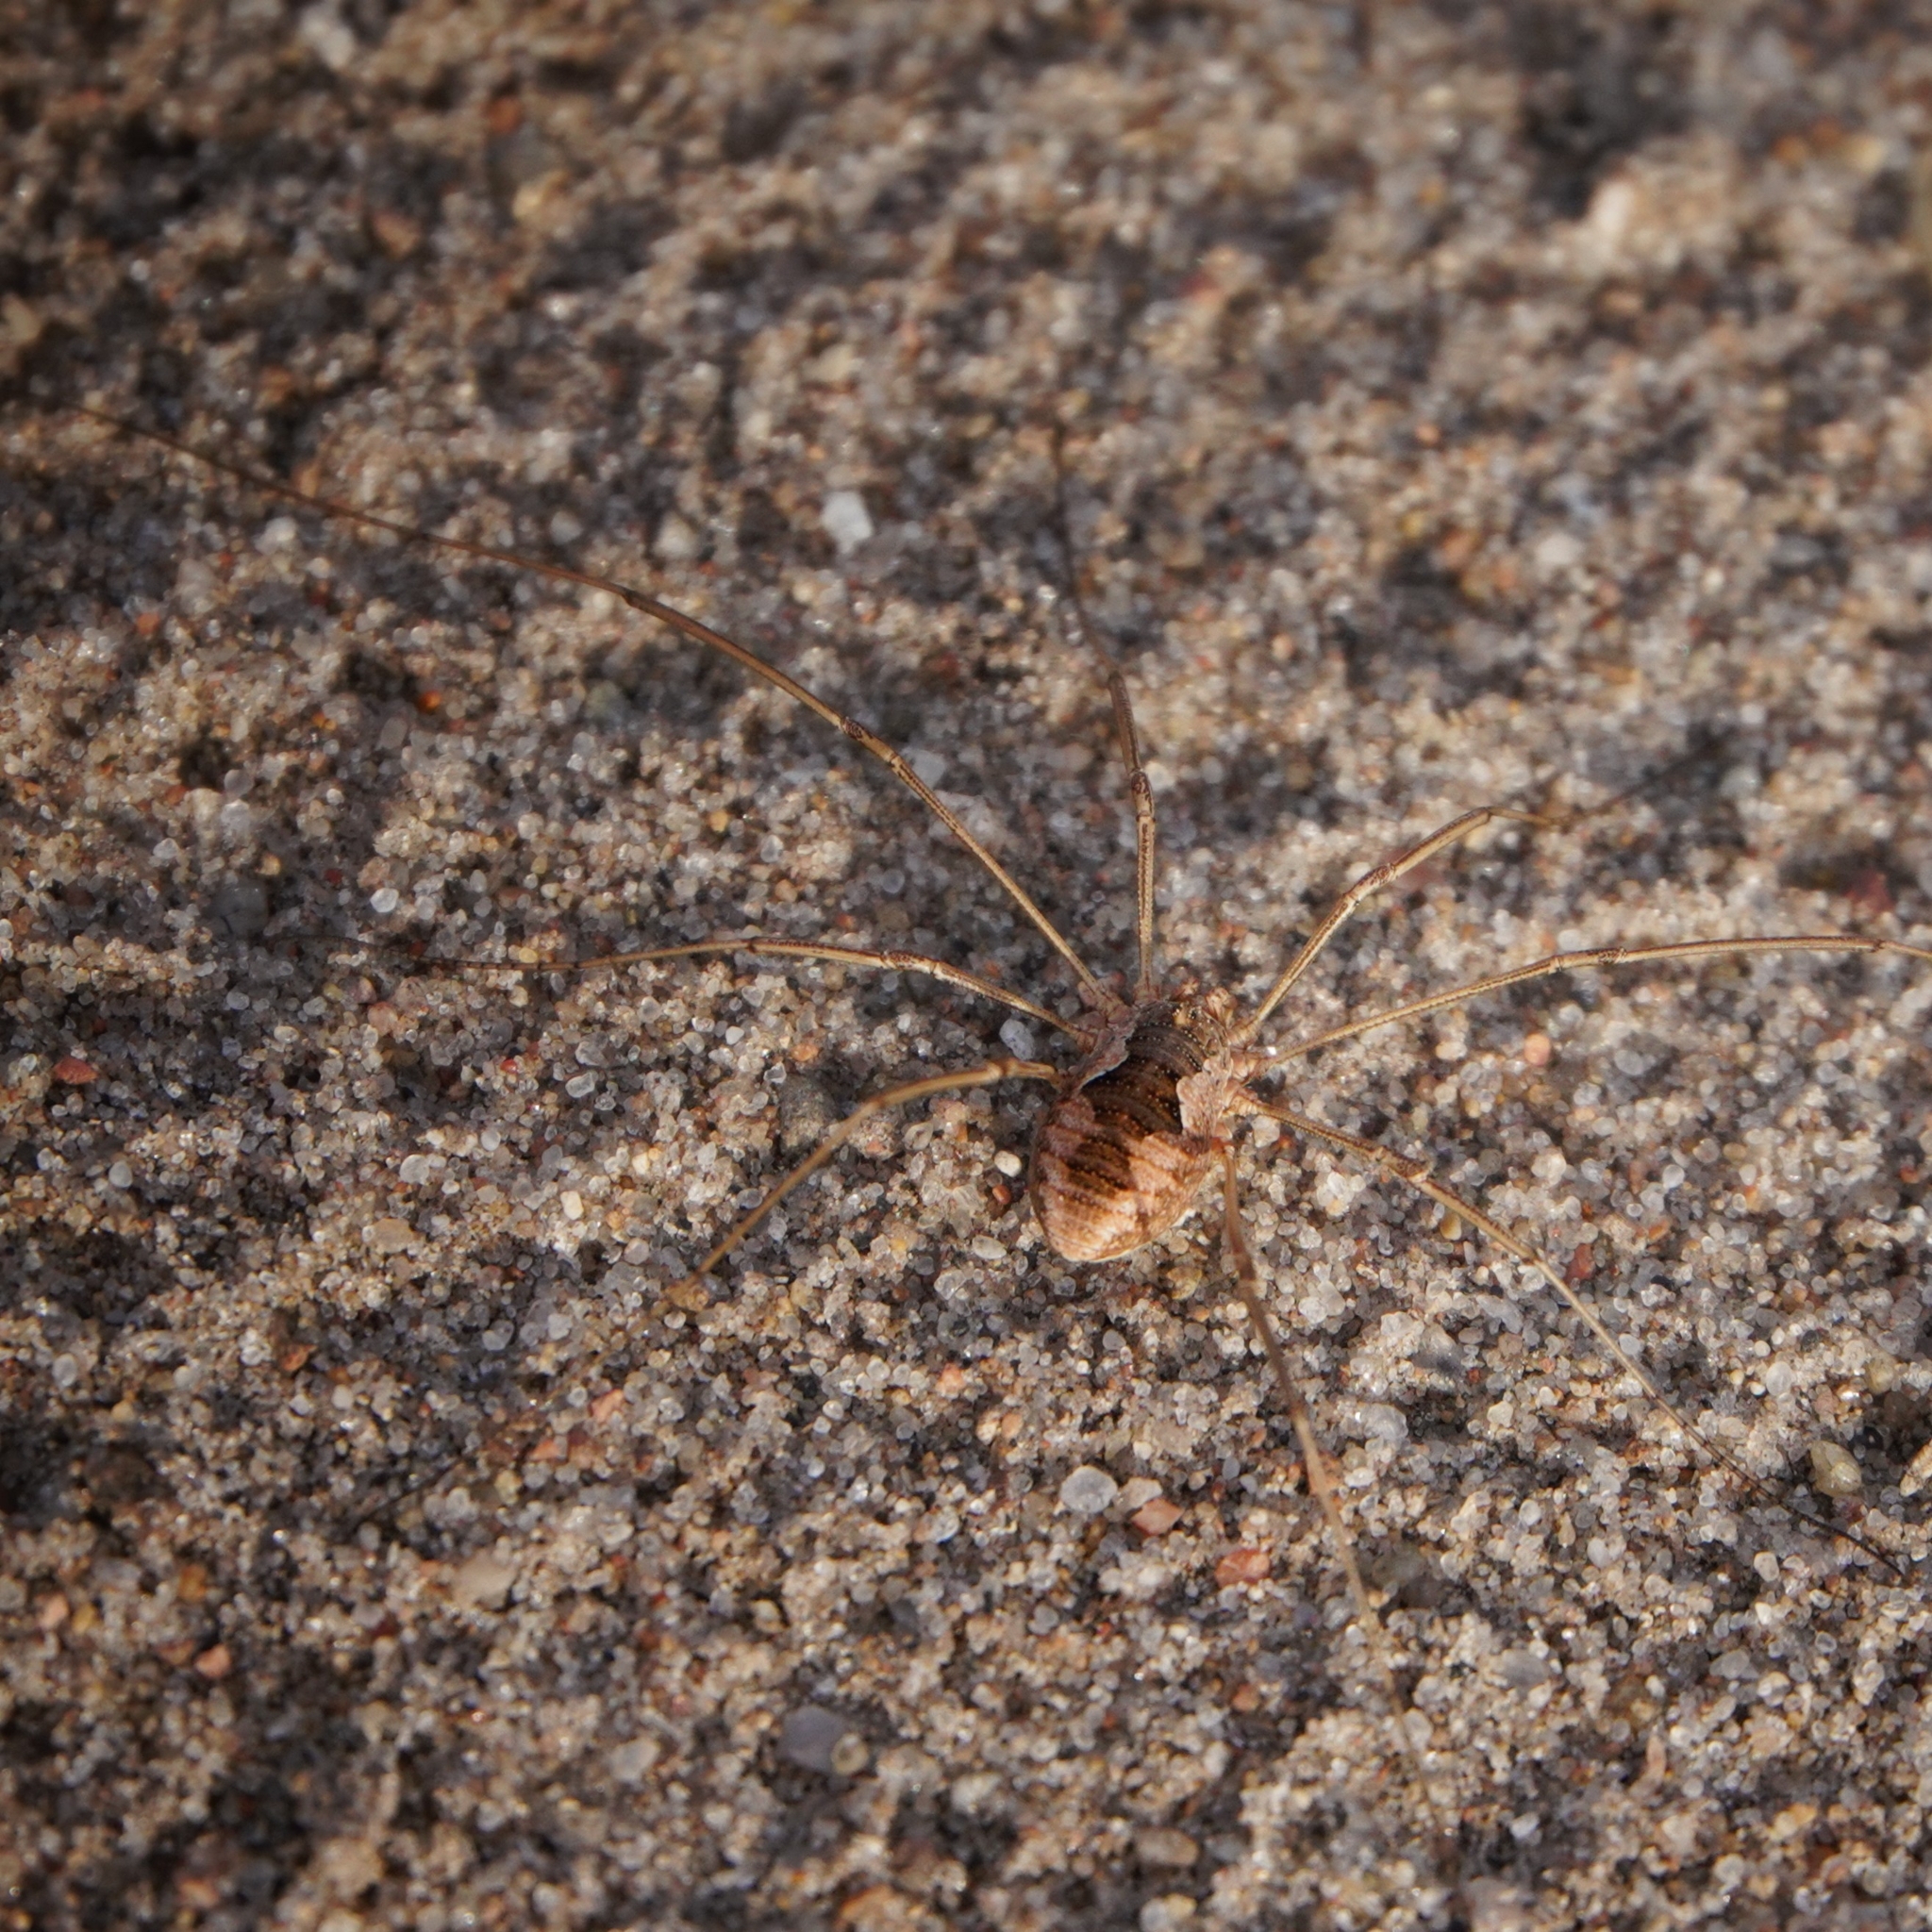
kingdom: Animalia
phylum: Arthropoda
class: Arachnida
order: Opiliones
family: Phalangiidae
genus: Phalangium
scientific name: Phalangium opilio
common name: Daddy longleg
